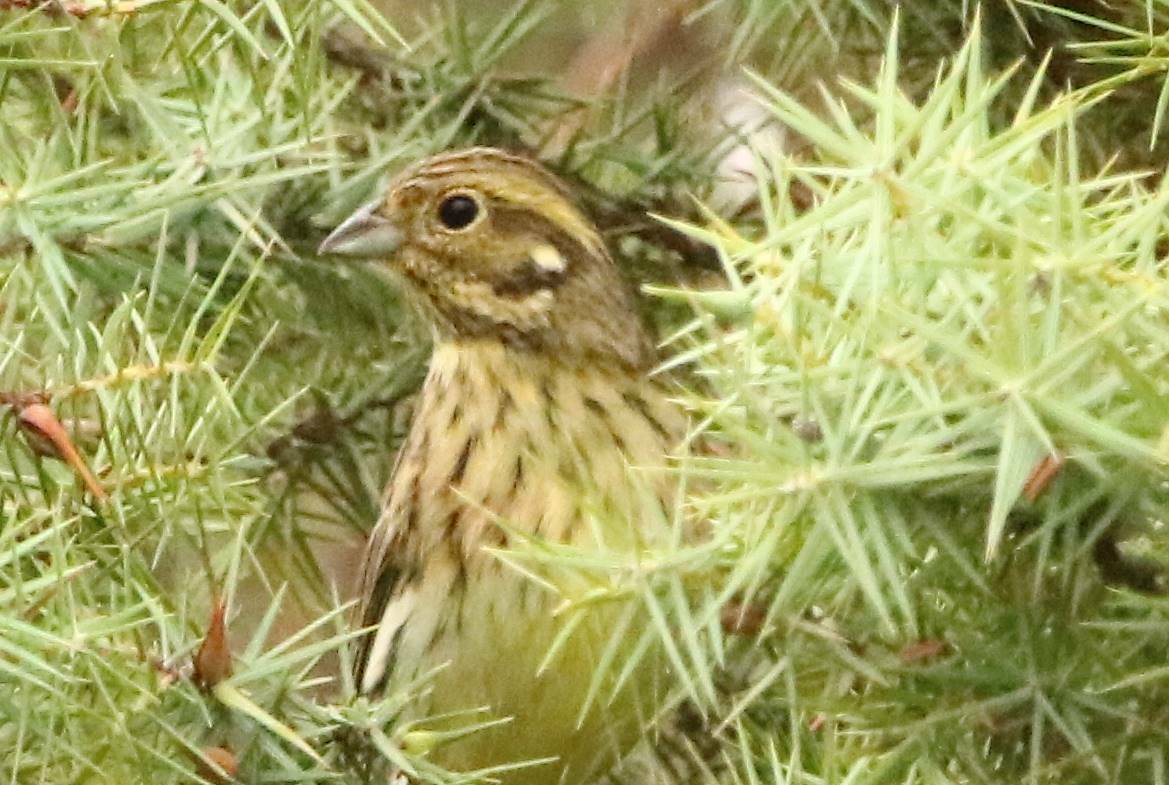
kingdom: Animalia
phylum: Chordata
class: Aves
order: Passeriformes
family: Emberizidae
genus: Emberiza
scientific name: Emberiza cirlus
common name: Cirl bunting
